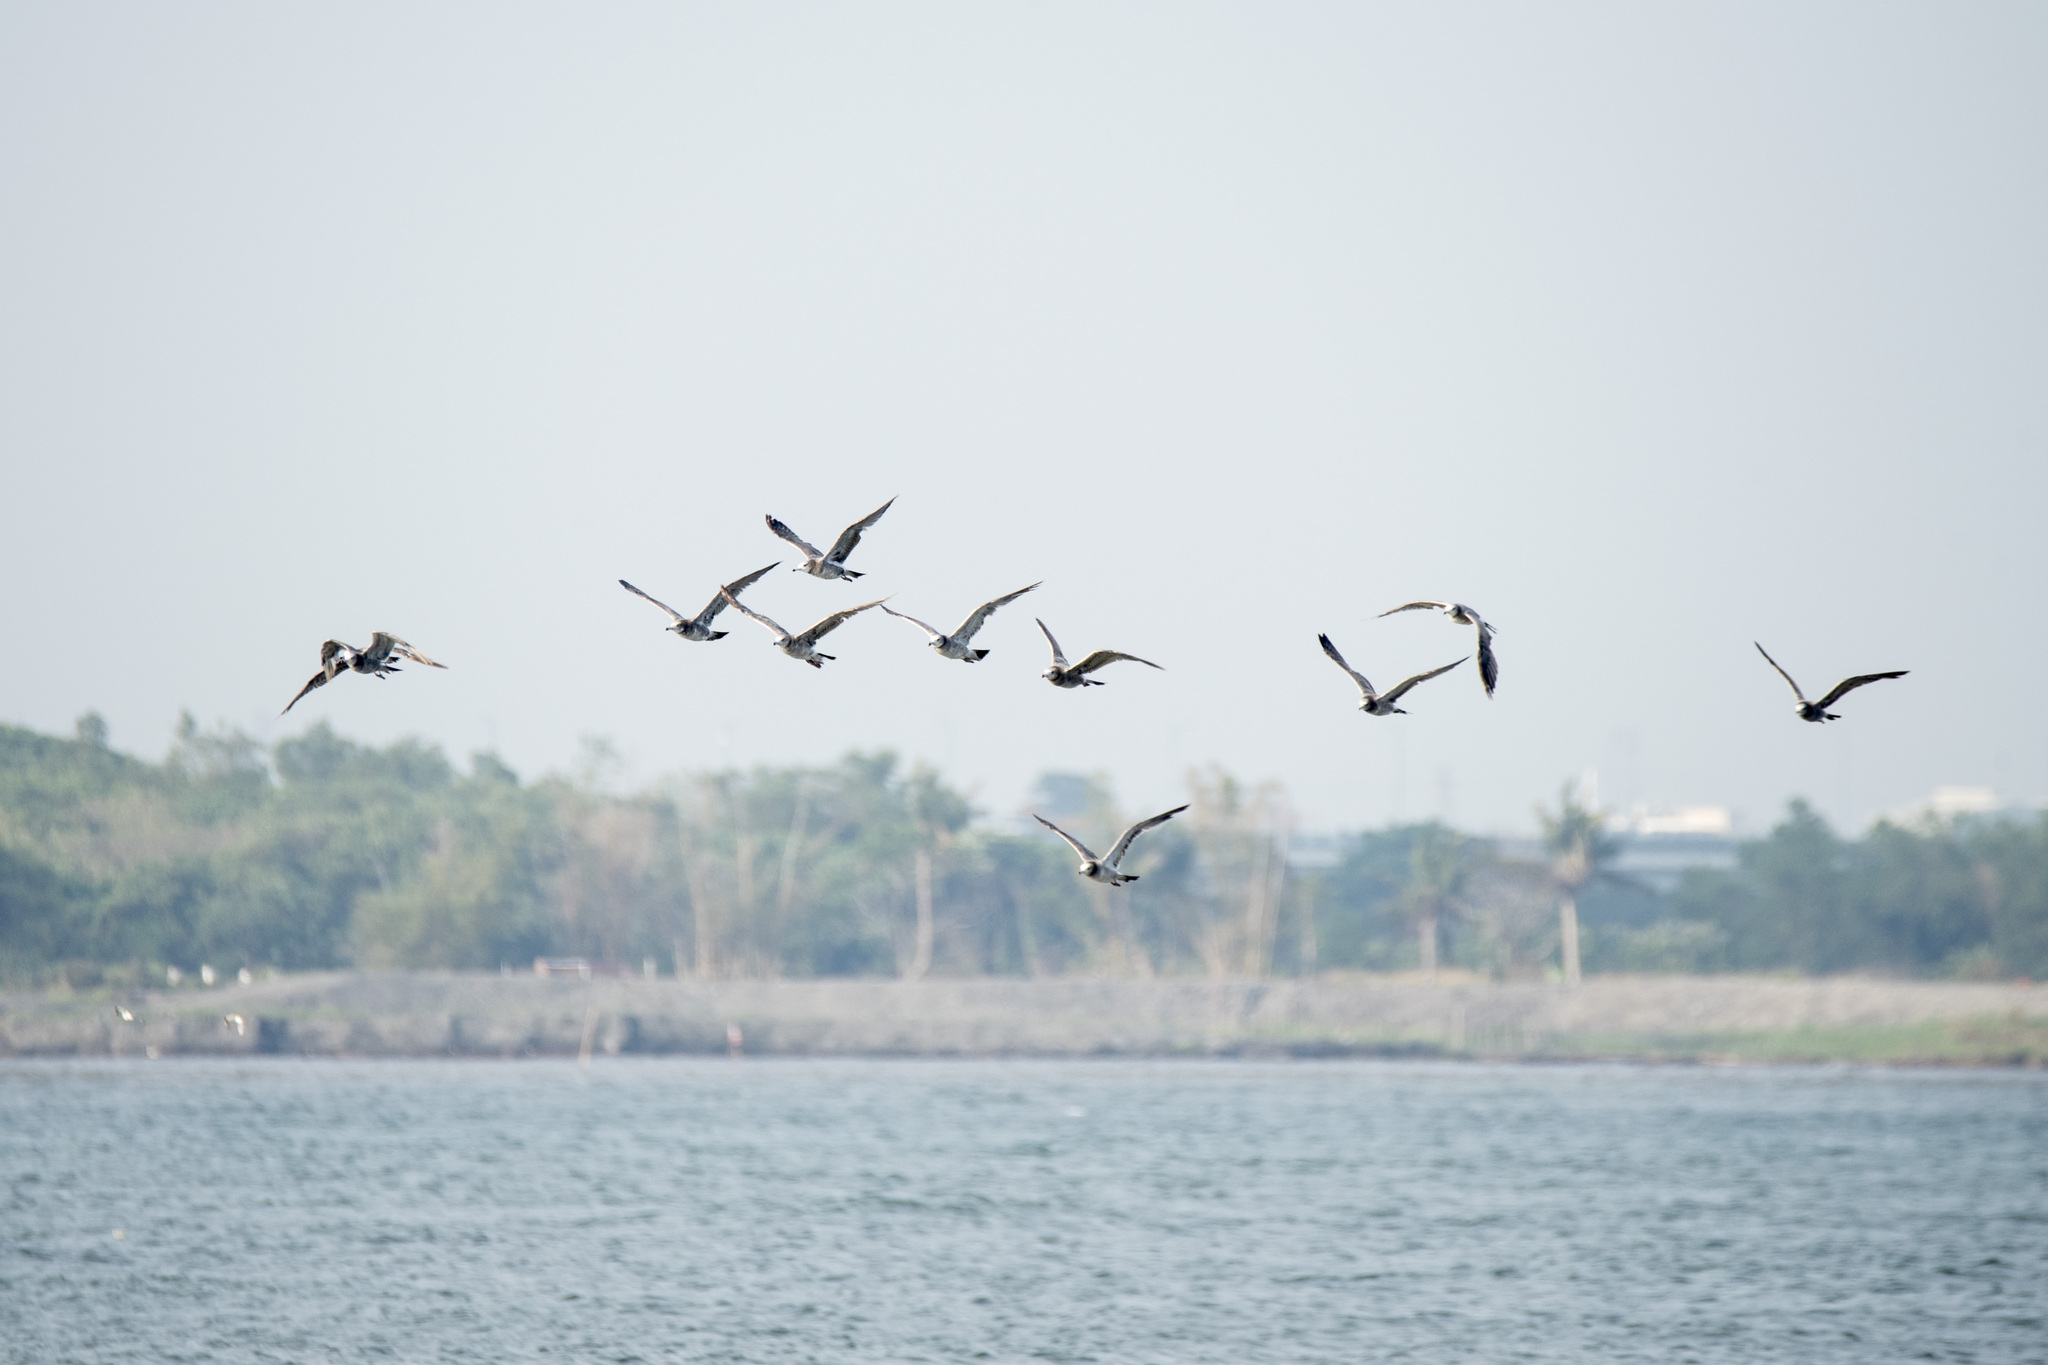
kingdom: Animalia
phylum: Chordata
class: Aves
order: Charadriiformes
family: Laridae
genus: Larus
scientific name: Larus crassirostris
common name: Black-tailed gull
